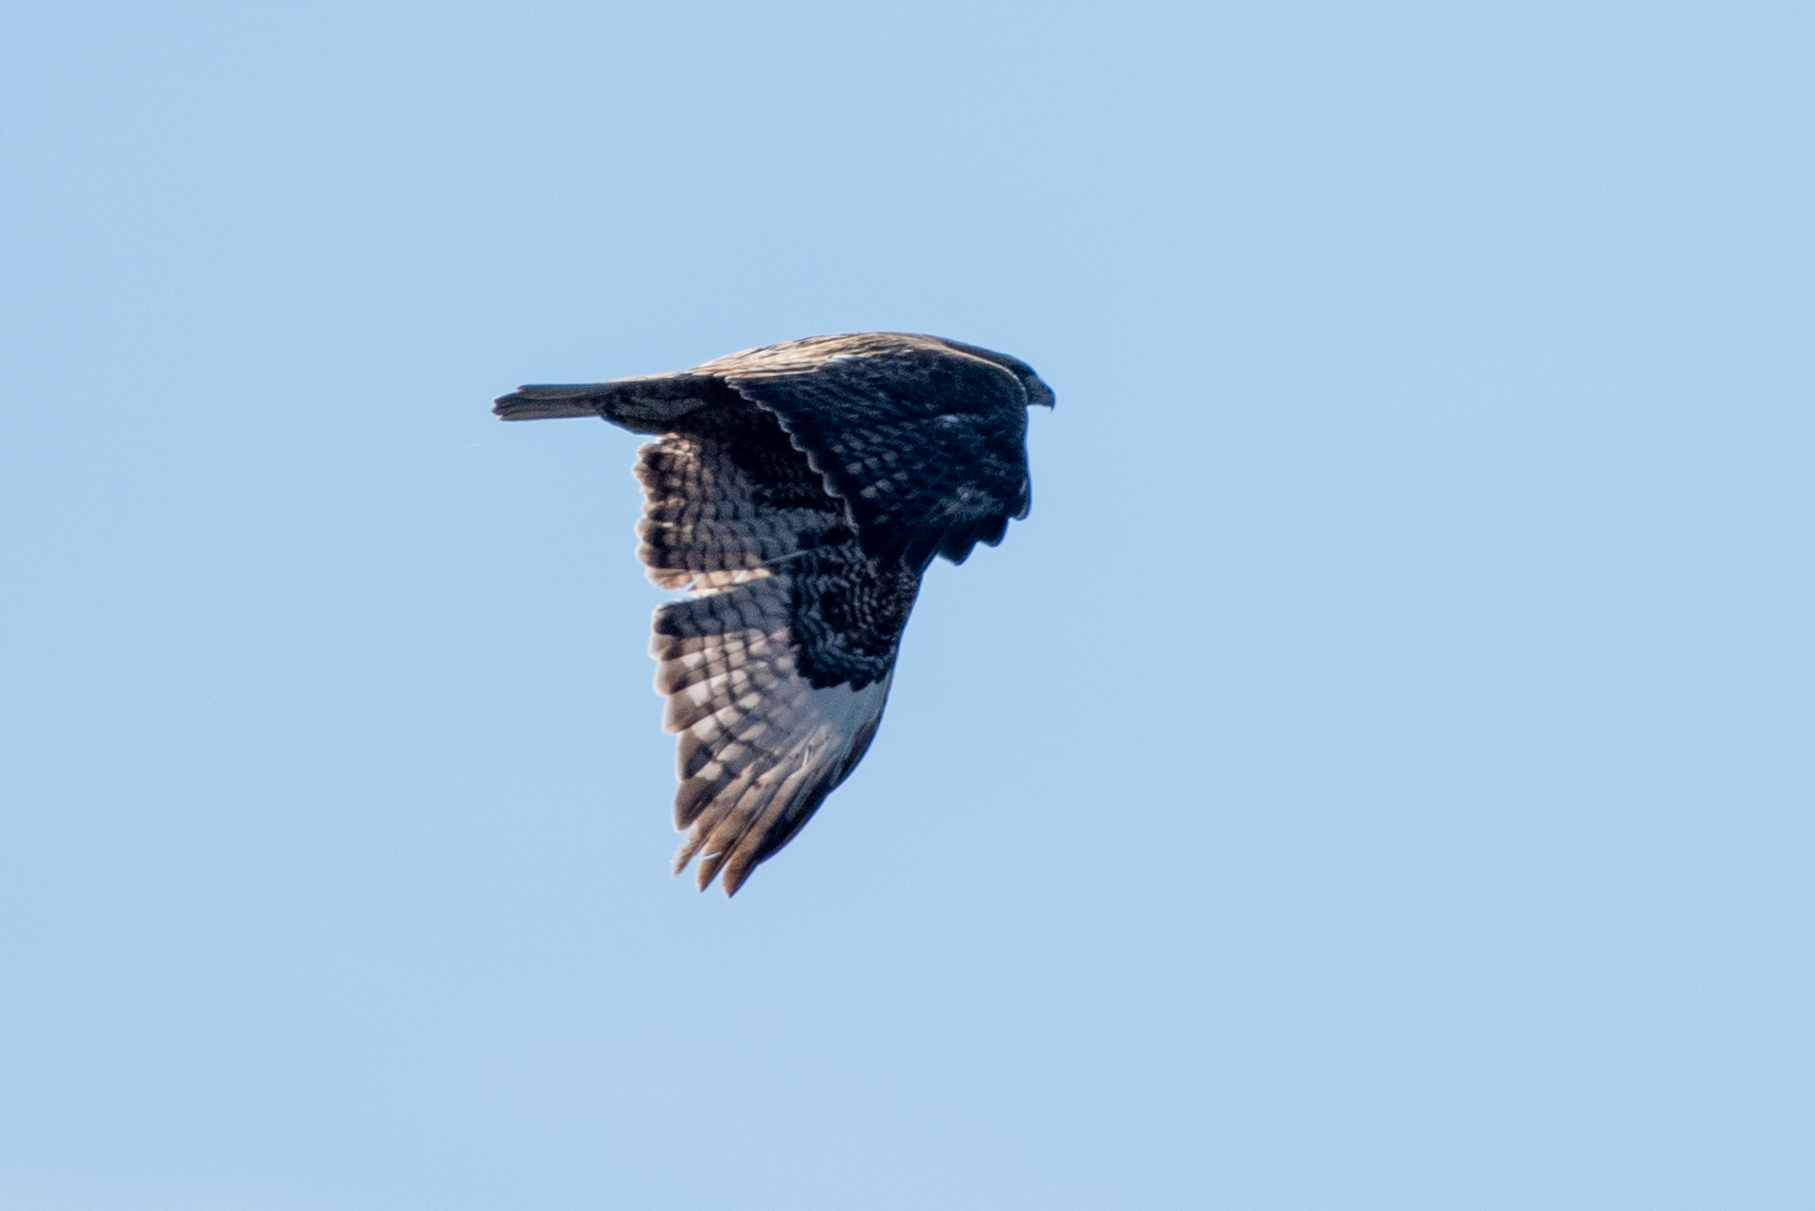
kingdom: Animalia
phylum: Chordata
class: Aves
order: Accipitriformes
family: Accipitridae
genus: Buteo
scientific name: Buteo jamaicensis
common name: Red-tailed hawk
